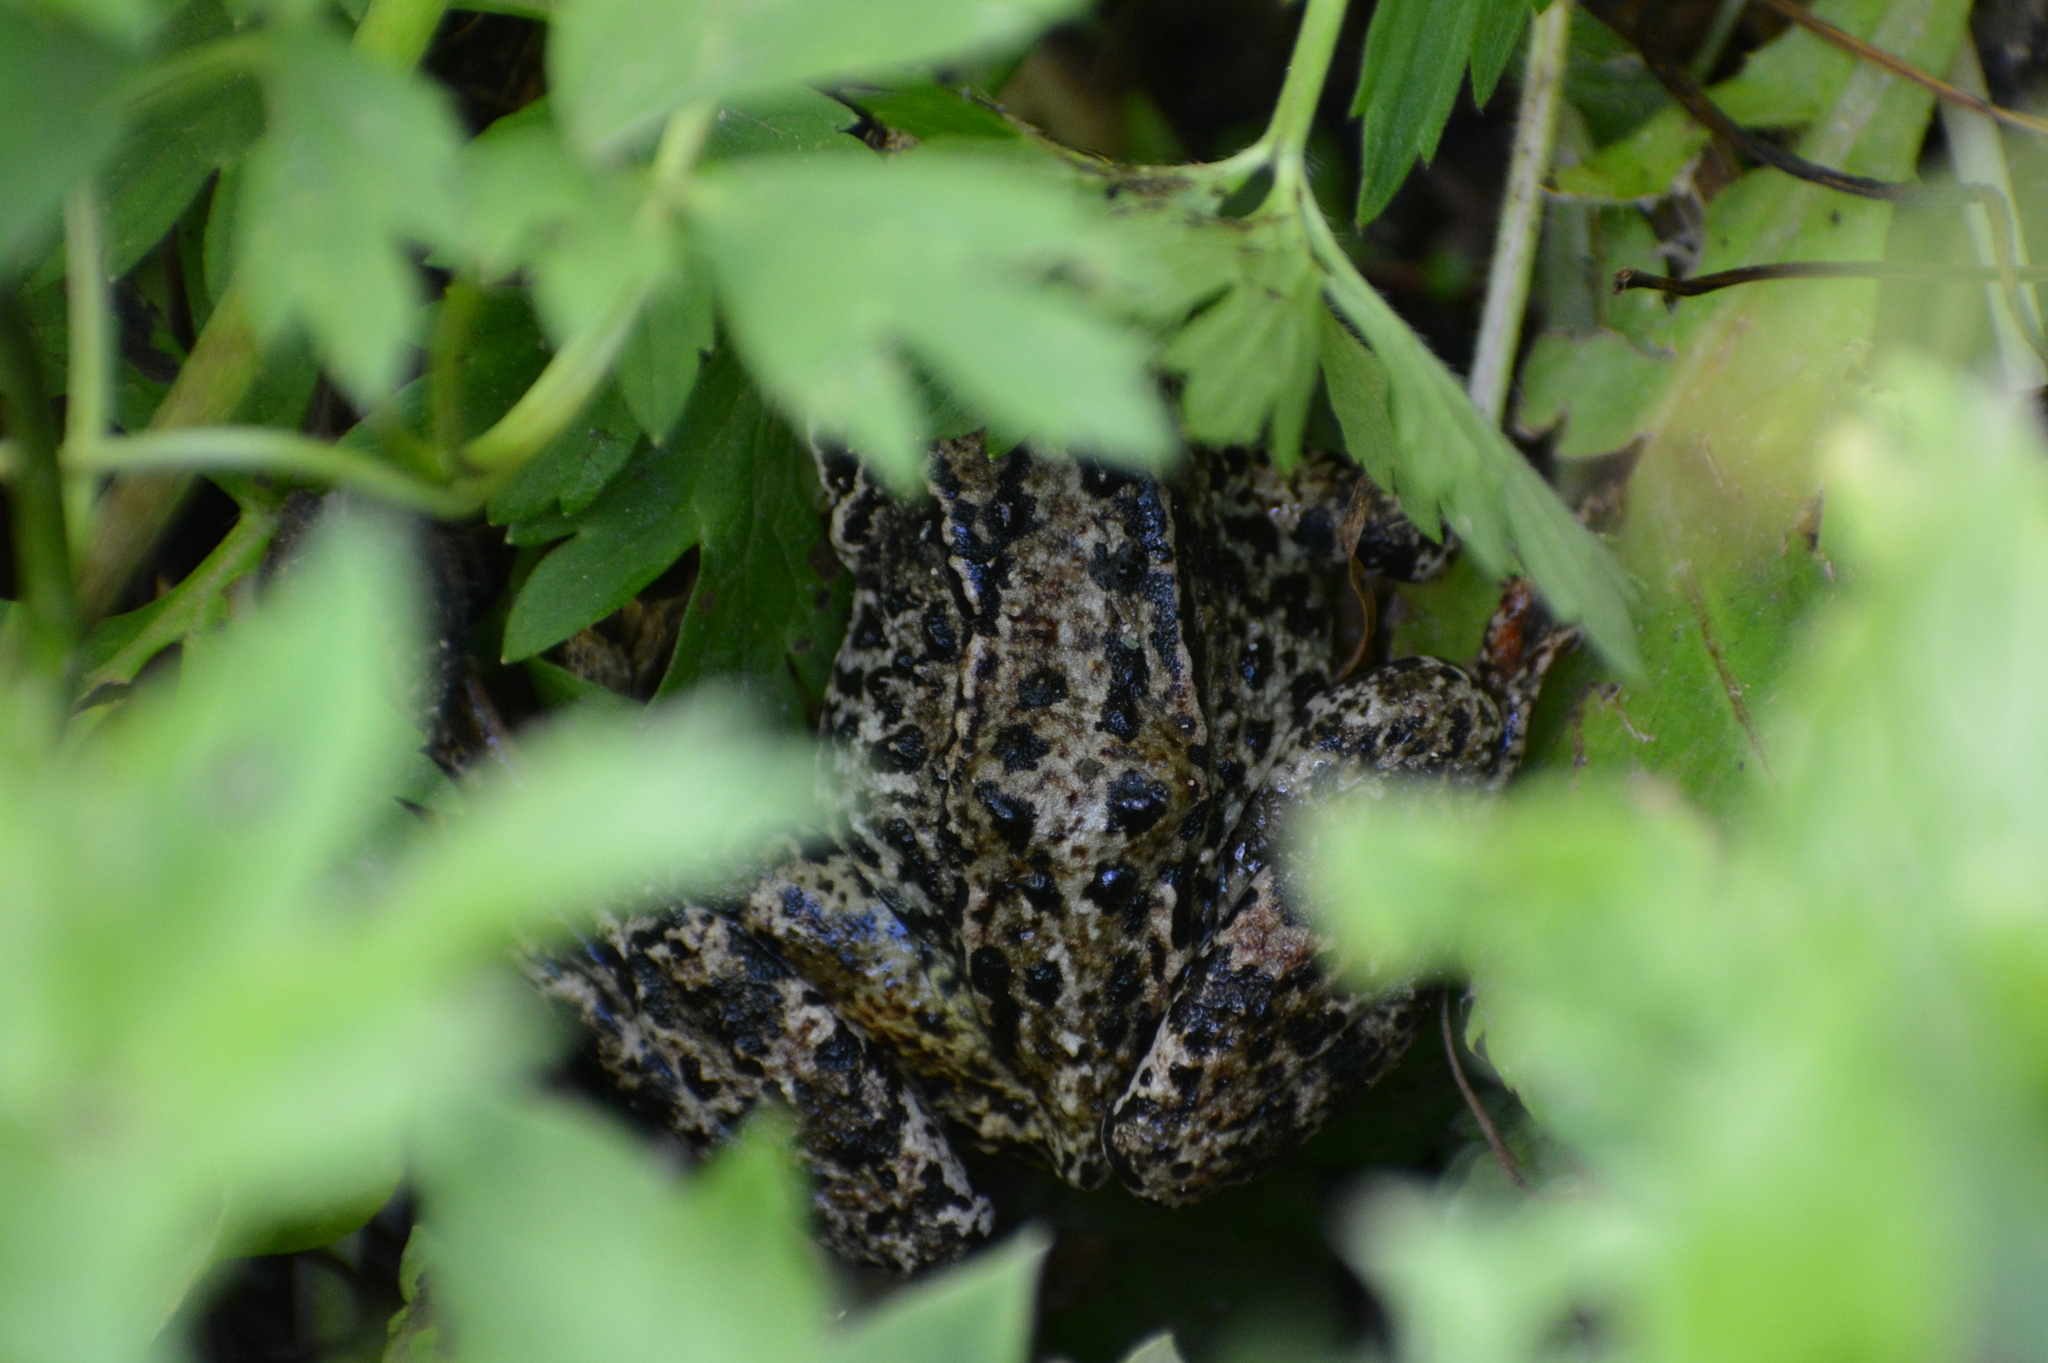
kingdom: Animalia
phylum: Chordata
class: Amphibia
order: Anura
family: Ranidae
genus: Rana
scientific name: Rana temporaria
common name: Common frog
